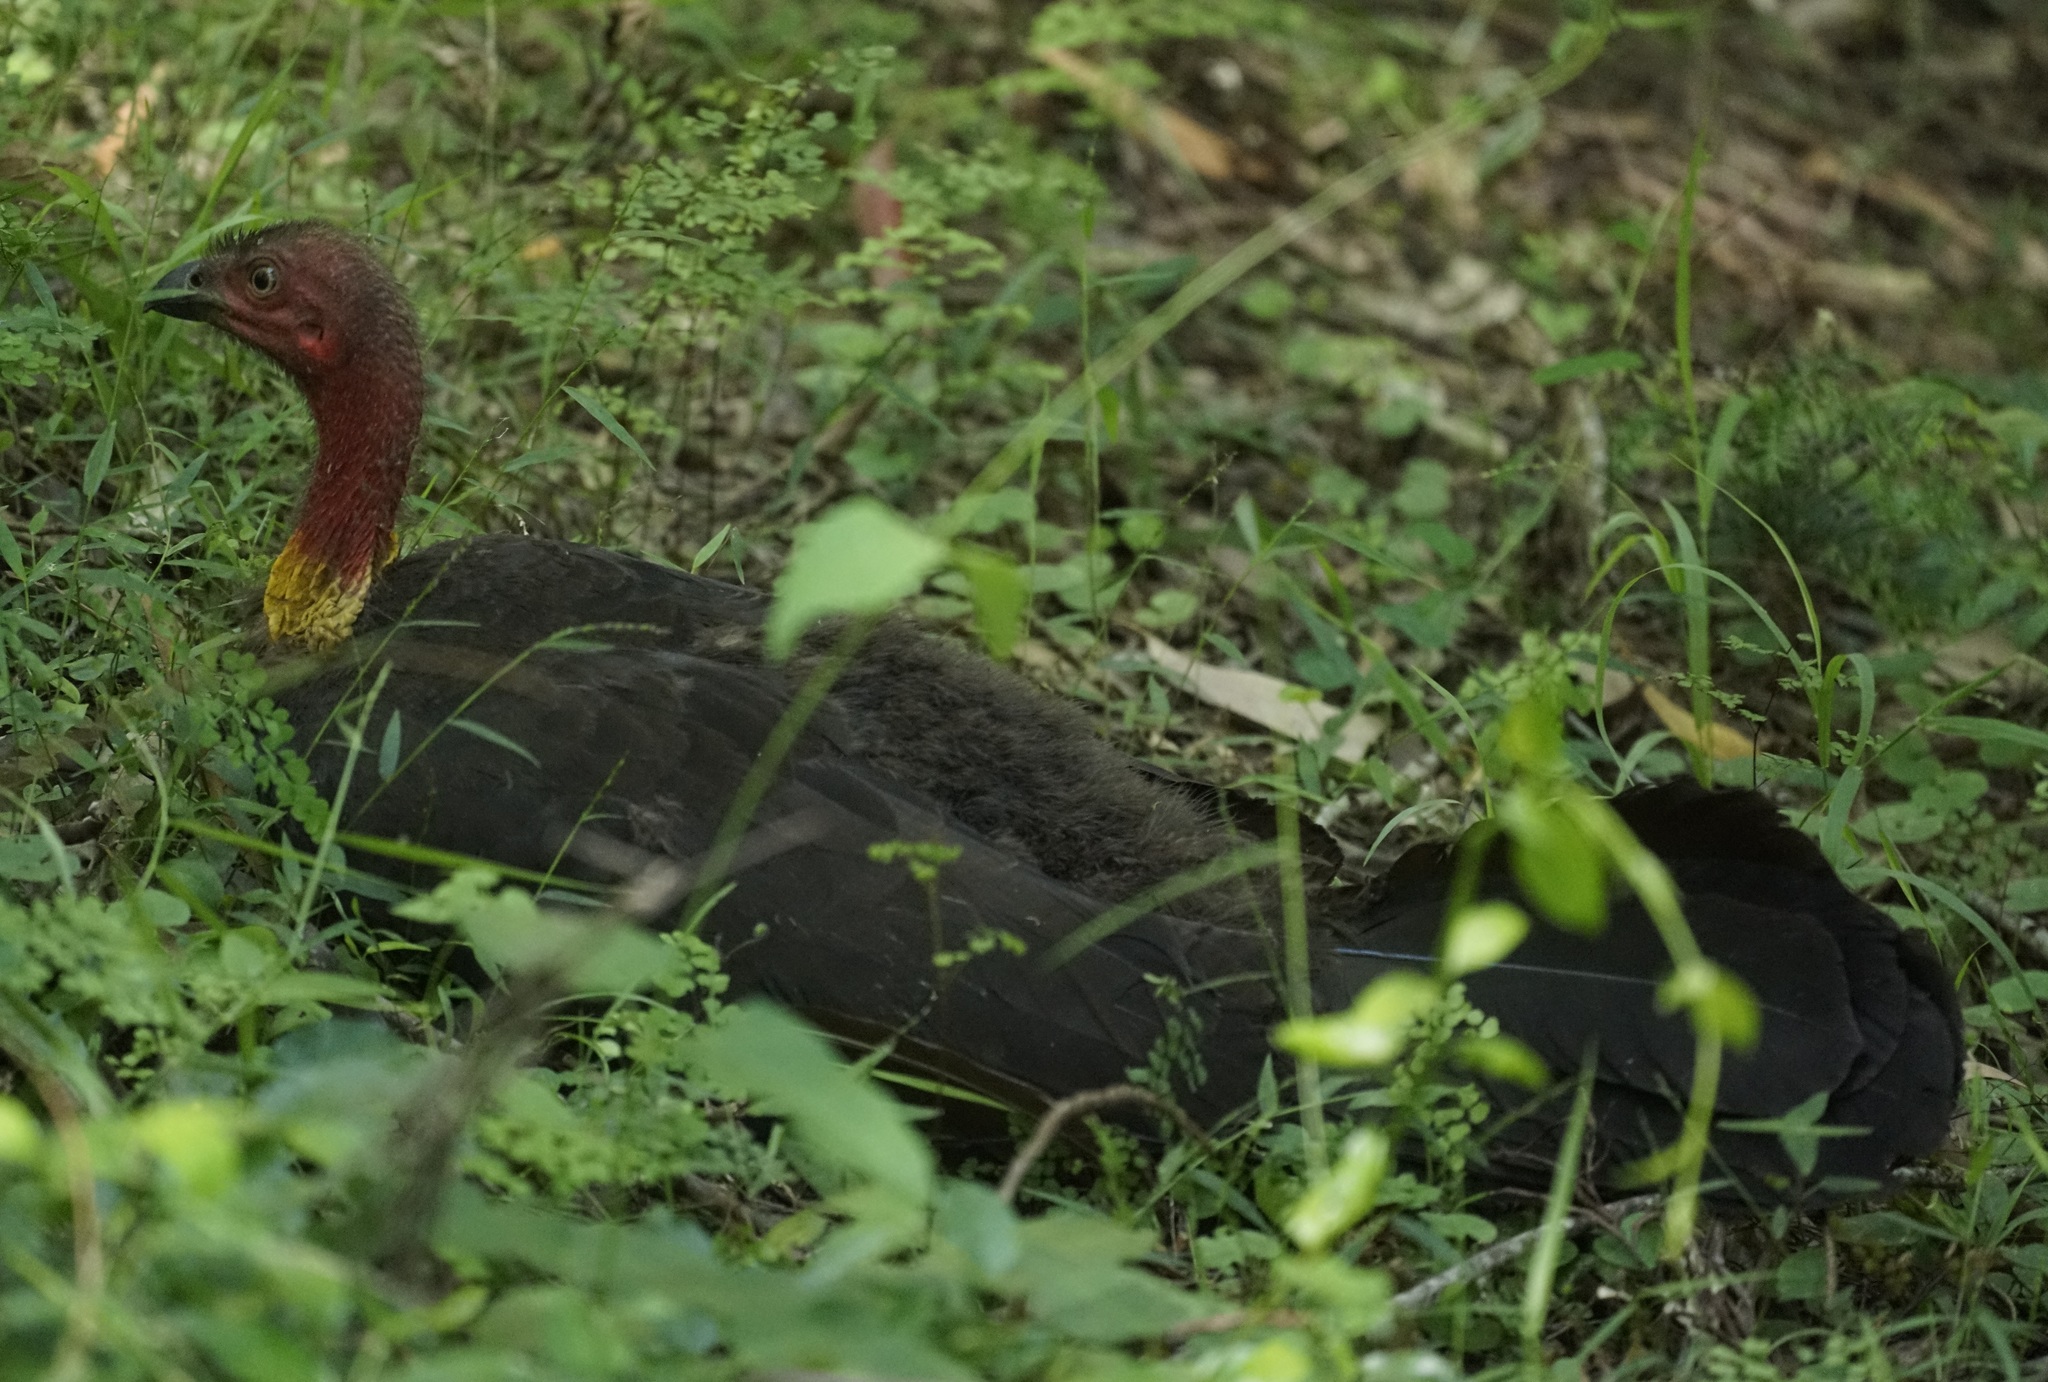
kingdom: Animalia
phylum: Chordata
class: Aves
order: Galliformes
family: Megapodiidae
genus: Alectura
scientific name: Alectura lathami
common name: Australian brushturkey
